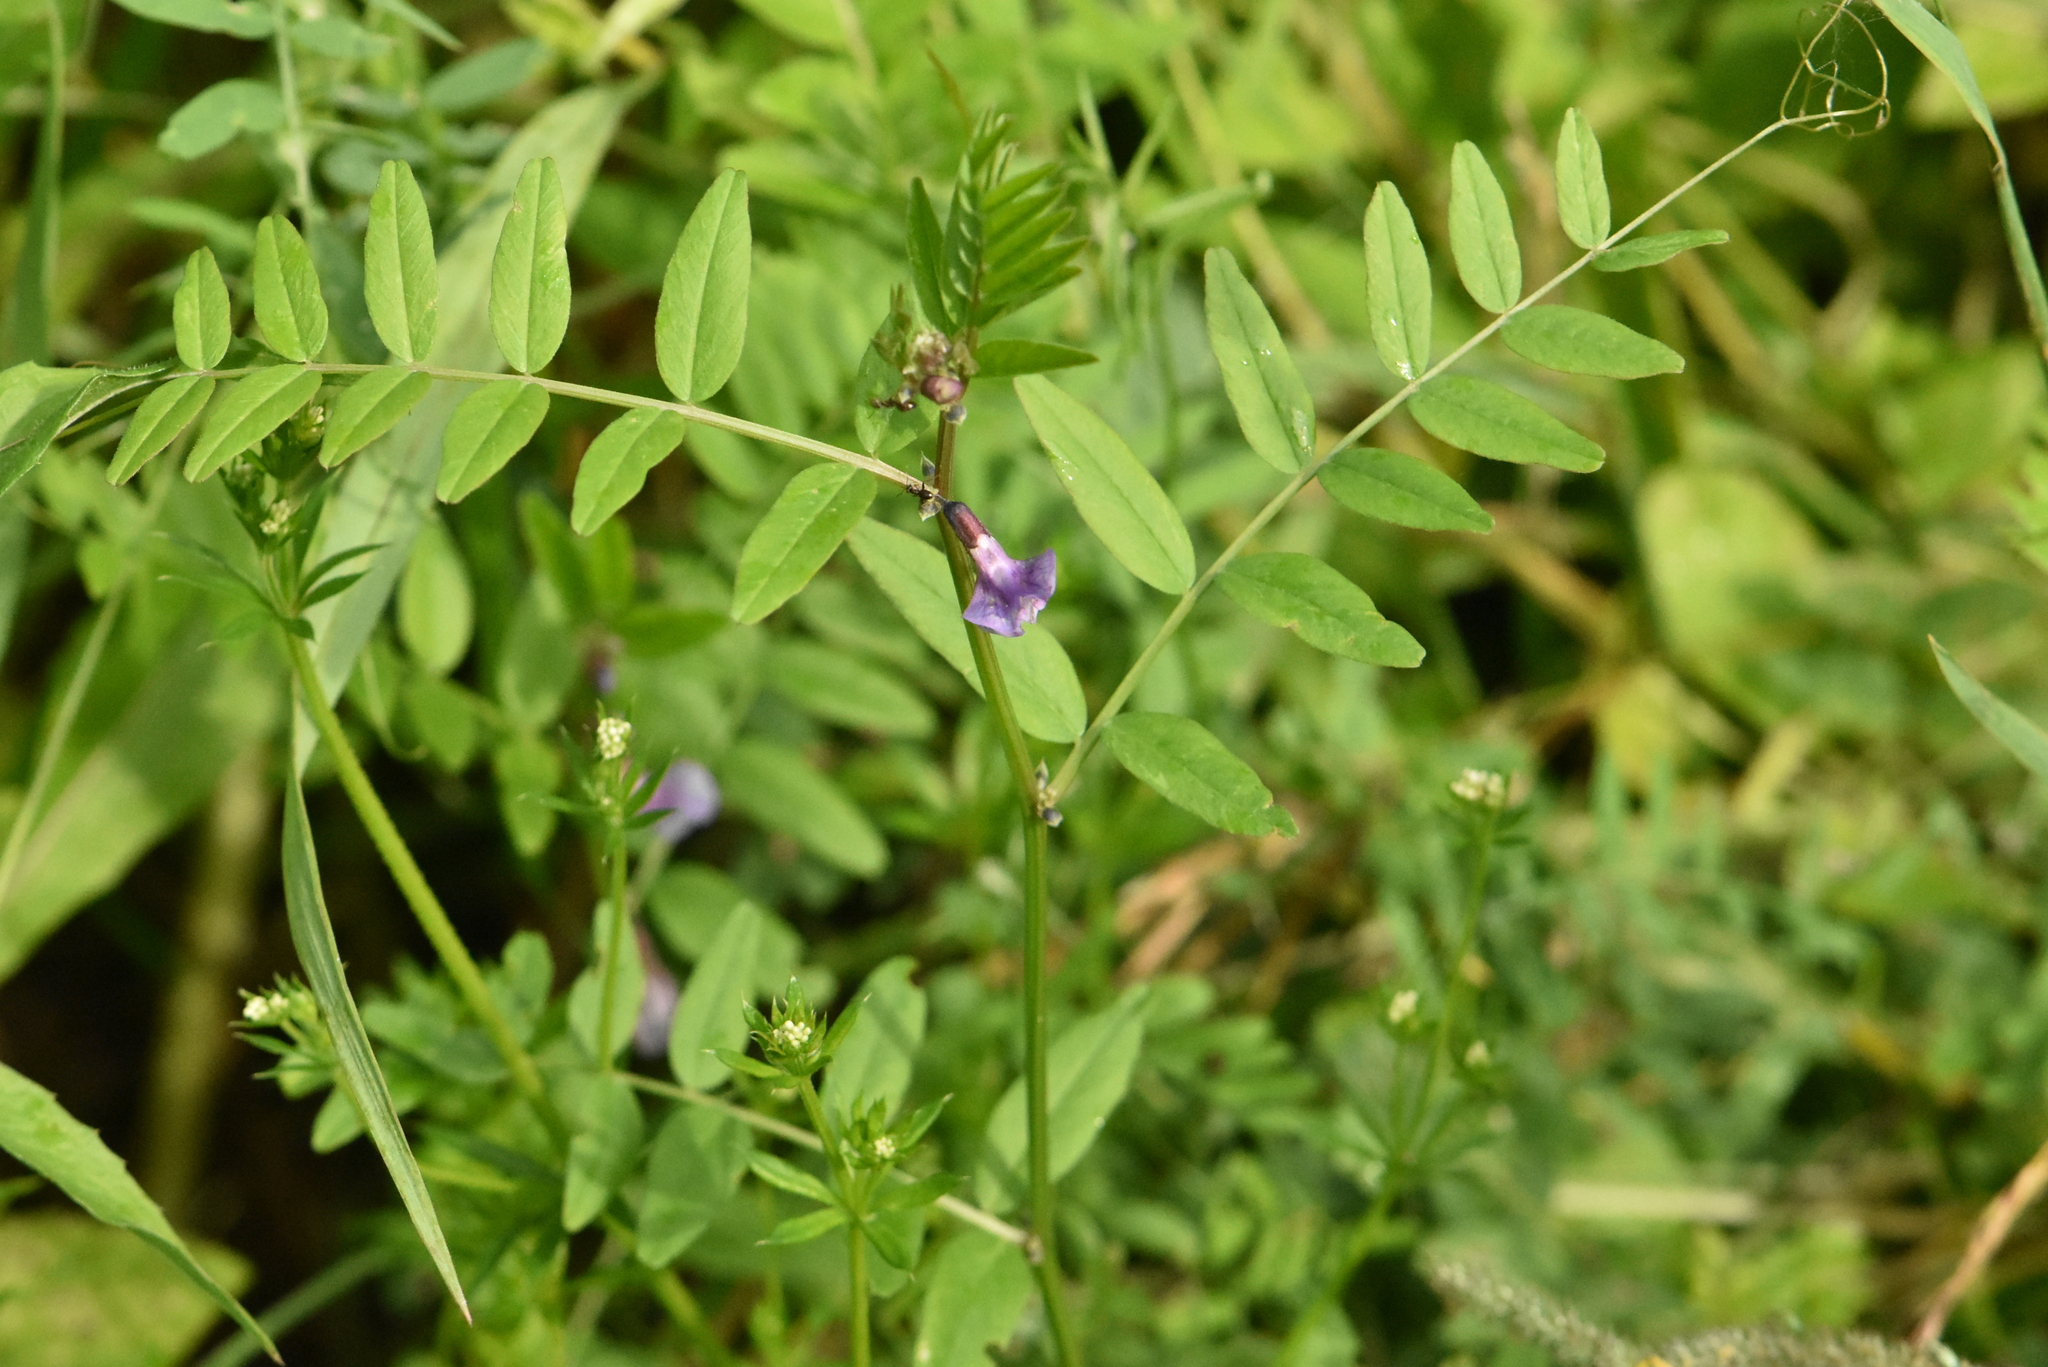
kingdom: Plantae
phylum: Tracheophyta
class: Magnoliopsida
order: Fabales
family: Fabaceae
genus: Vicia
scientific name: Vicia sepium
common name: Bush vetch
